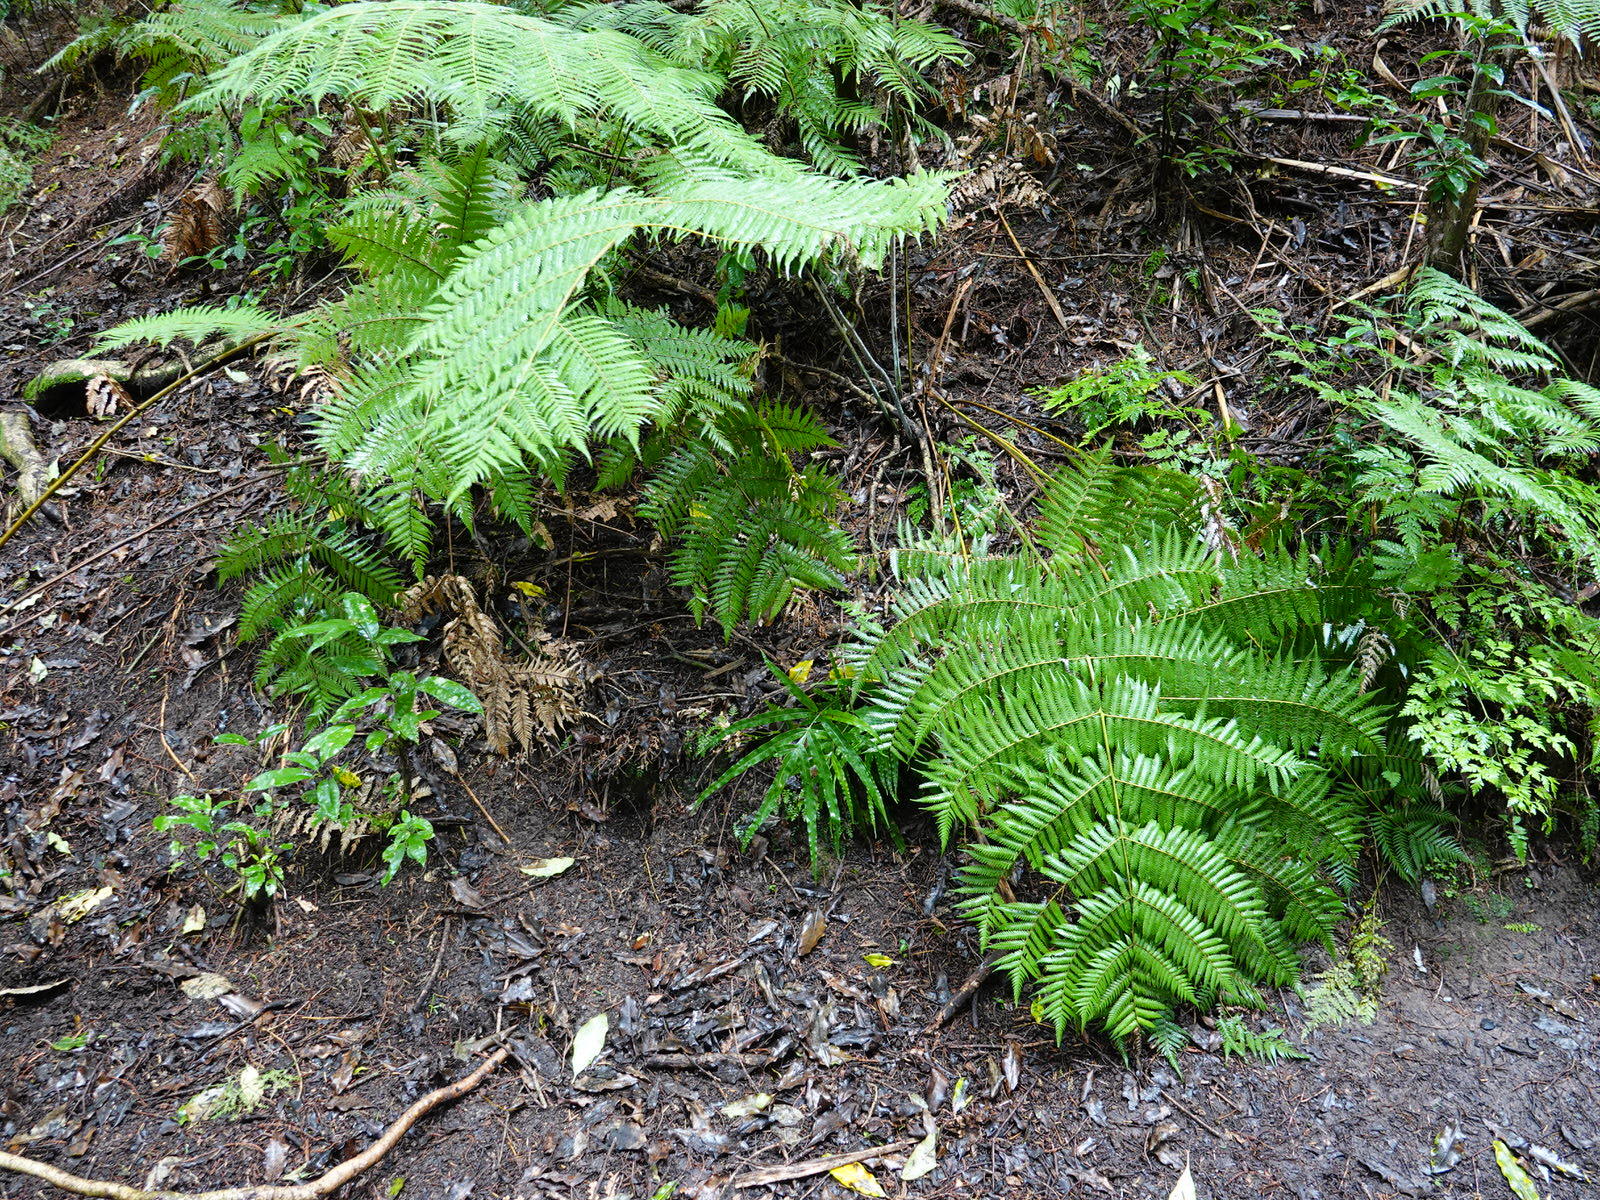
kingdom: Plantae
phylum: Tracheophyta
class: Polypodiopsida
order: Polypodiales
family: Pteridaceae
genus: Pteris
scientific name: Pteris cretica
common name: Ribbon fern
